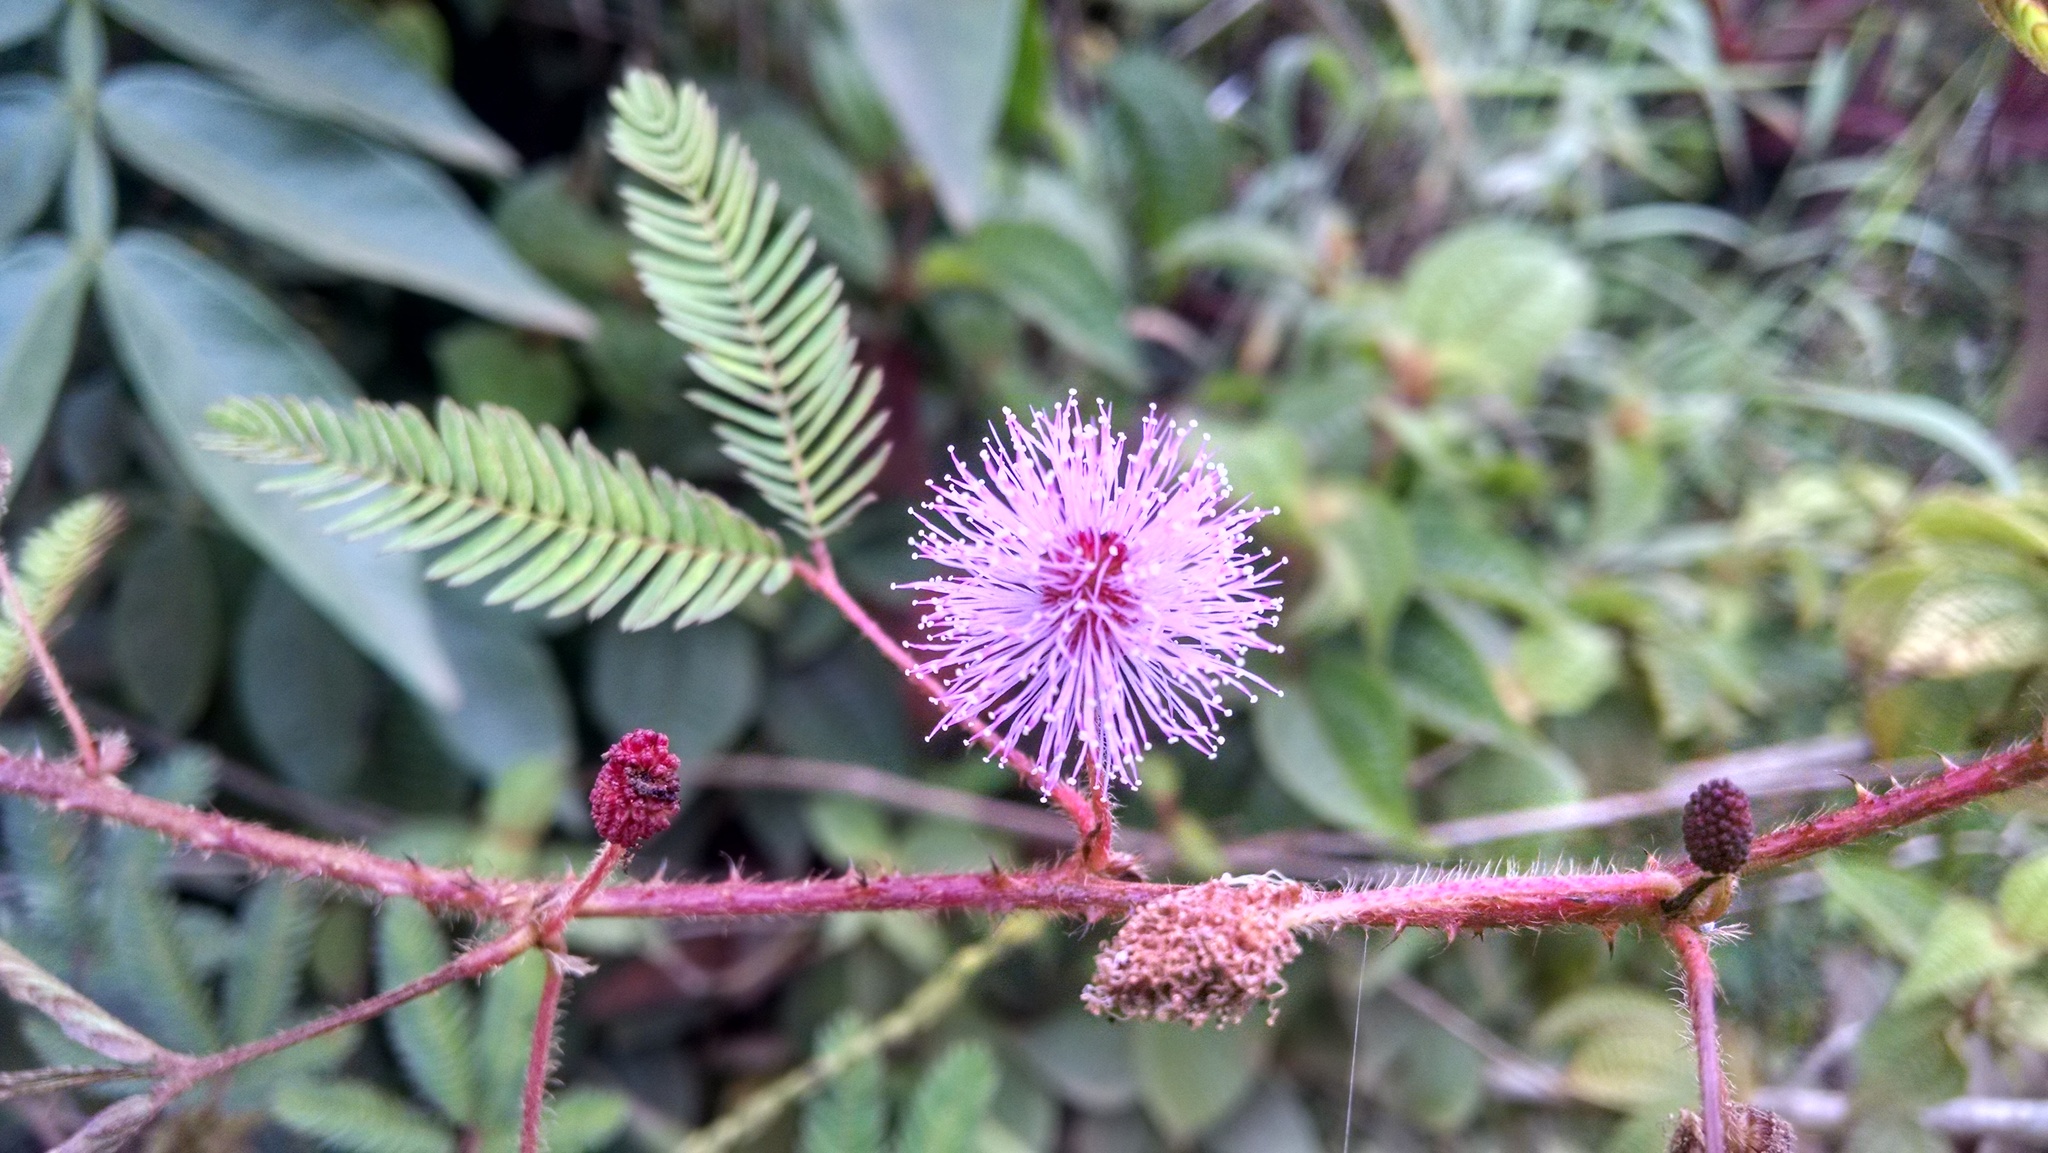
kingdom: Plantae
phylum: Tracheophyta
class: Magnoliopsida
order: Fabales
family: Fabaceae
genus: Mimosa
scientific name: Mimosa pudica
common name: Sensitive plant
